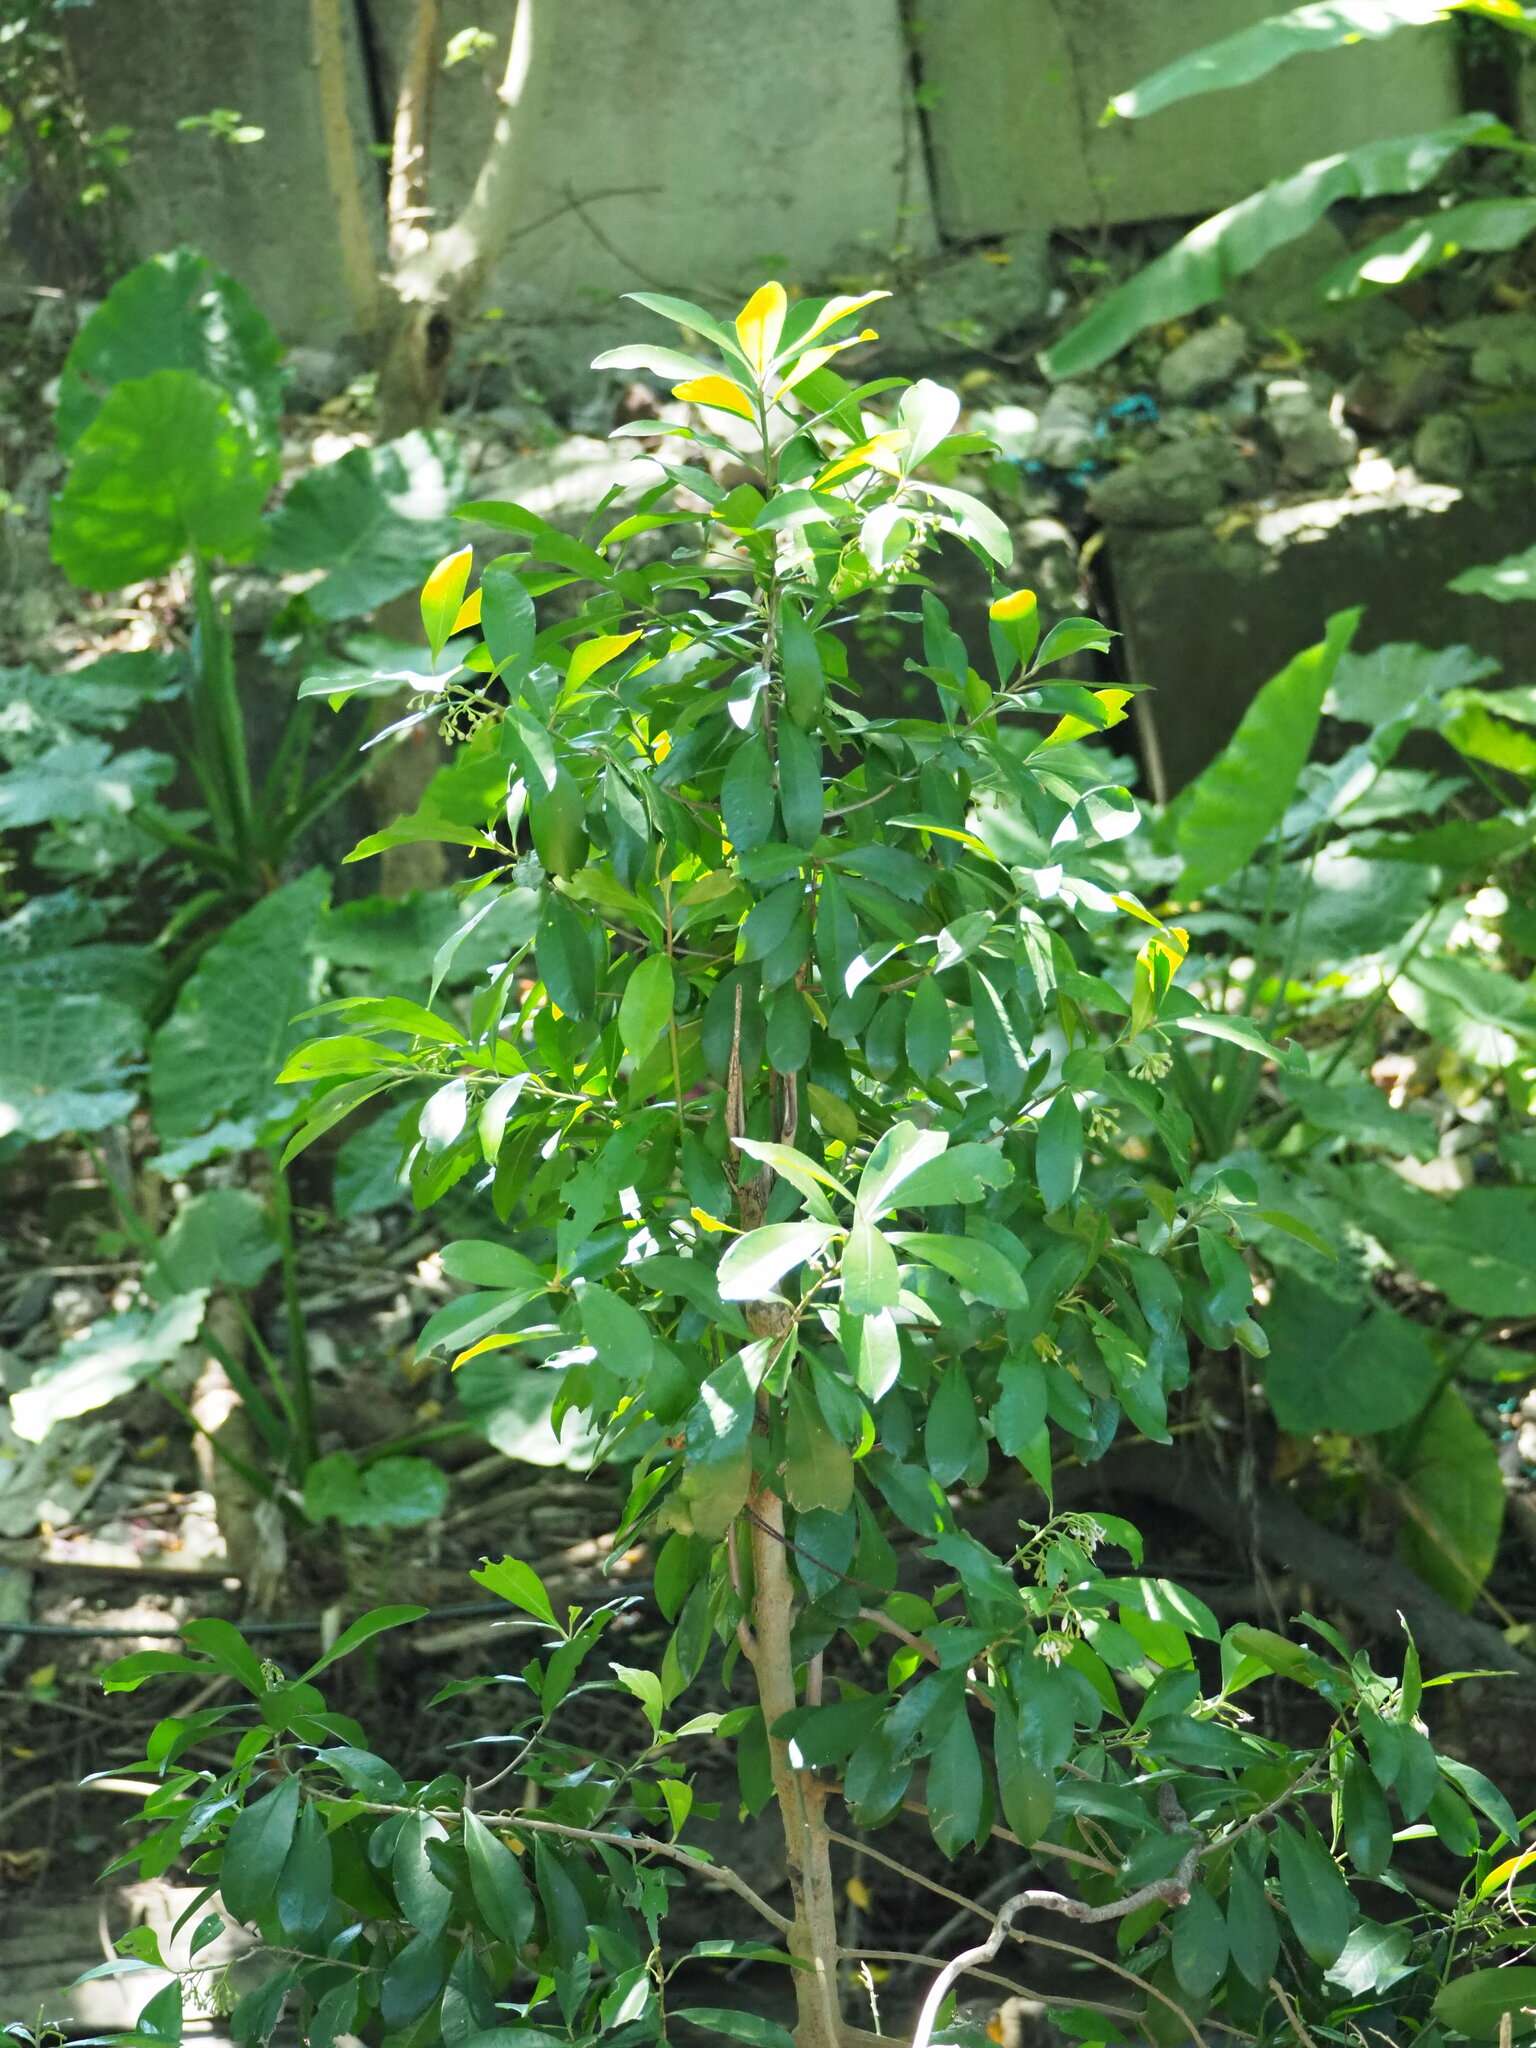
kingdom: Plantae
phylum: Tracheophyta
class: Magnoliopsida
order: Ericales
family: Primulaceae
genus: Ardisia
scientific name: Ardisia elliptica
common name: Shoebutton
